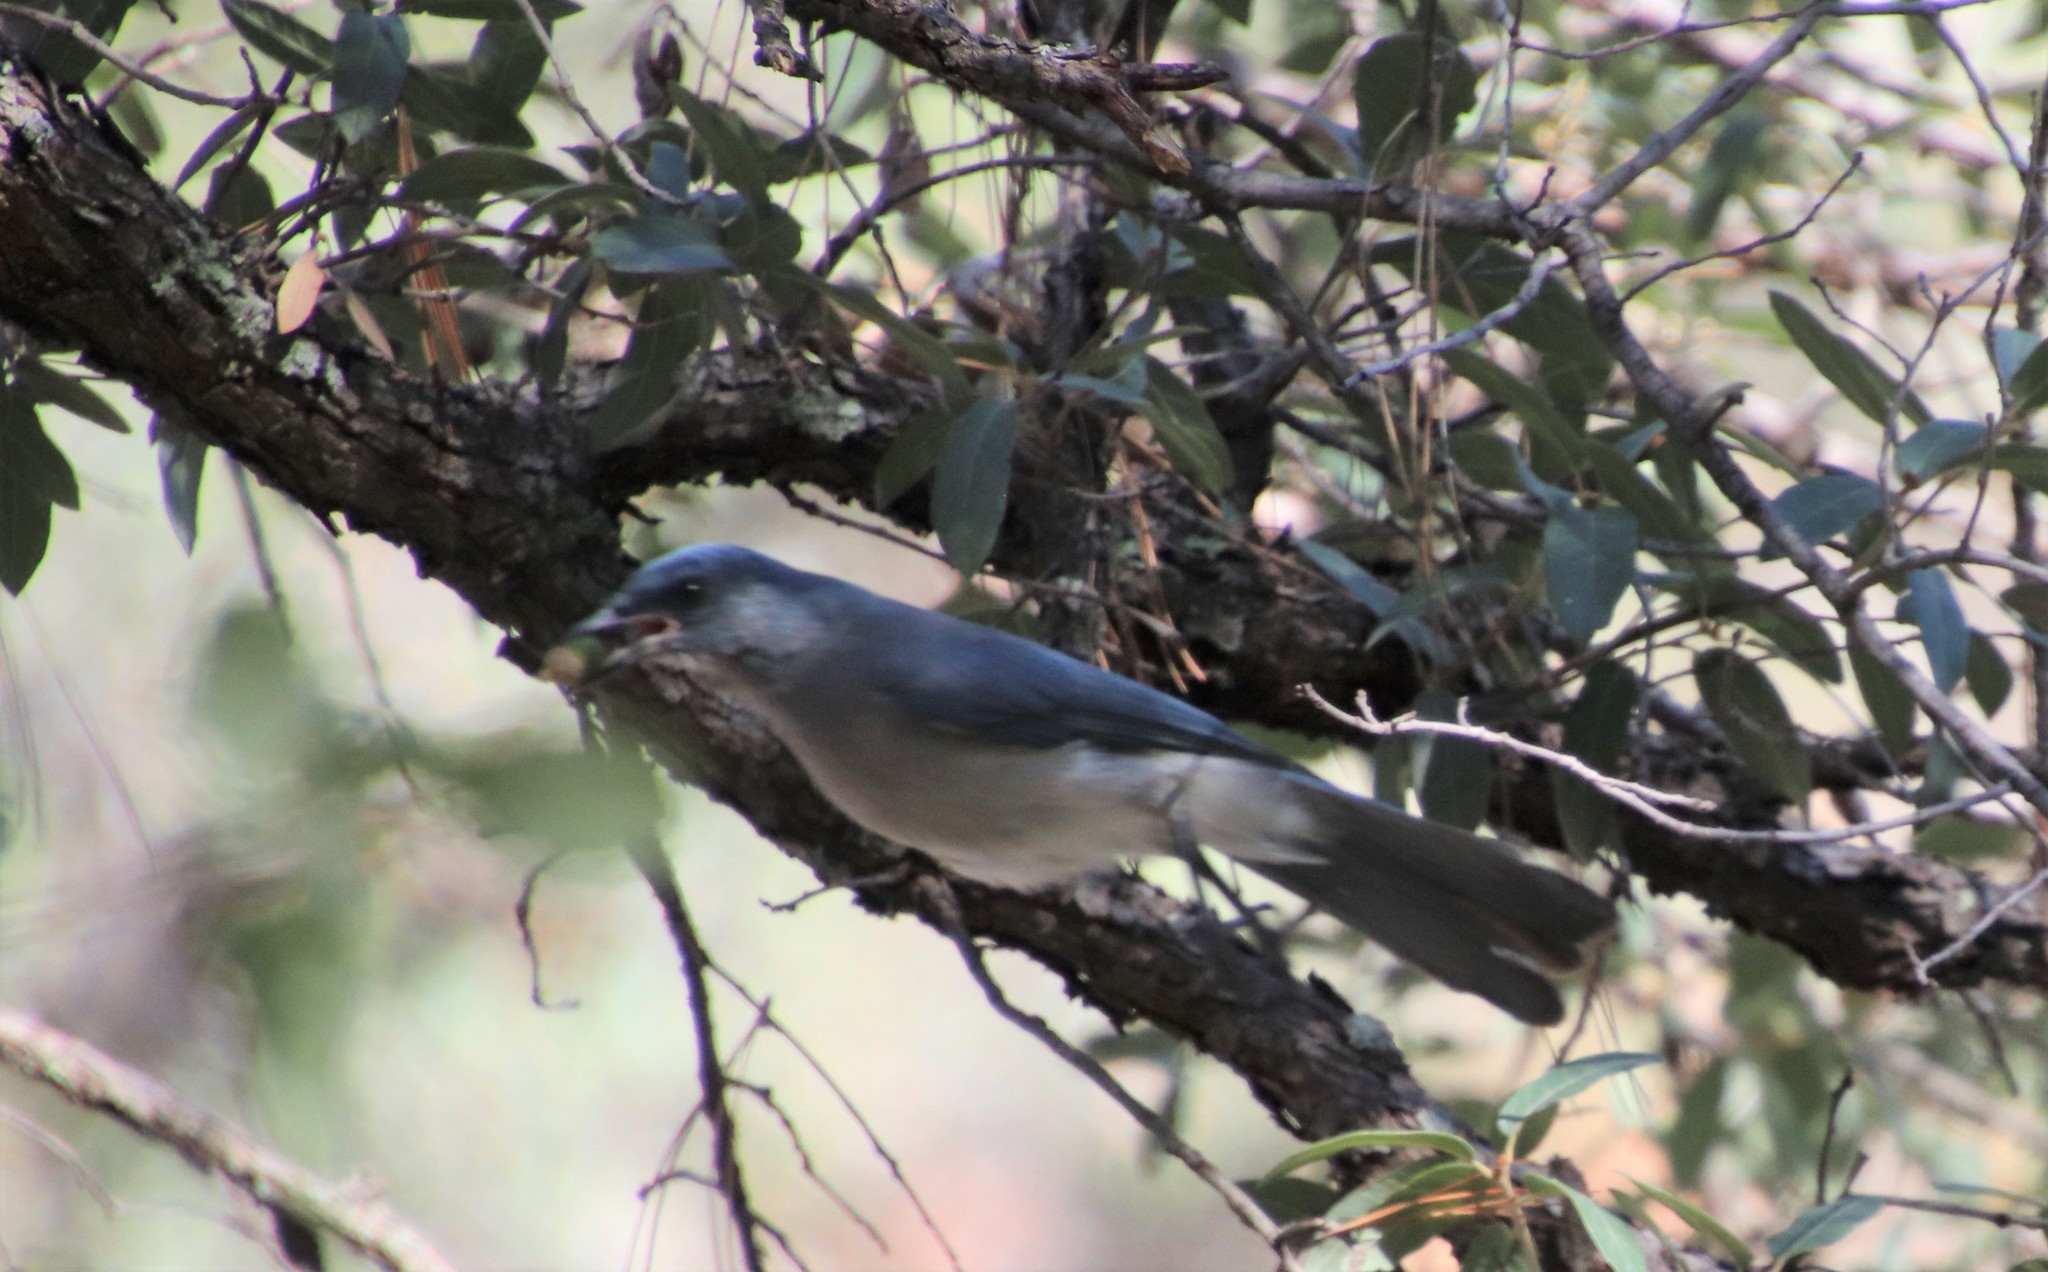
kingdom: Animalia
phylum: Chordata
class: Aves
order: Passeriformes
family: Corvidae
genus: Aphelocoma
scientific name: Aphelocoma wollweberi
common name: Mexican jay
